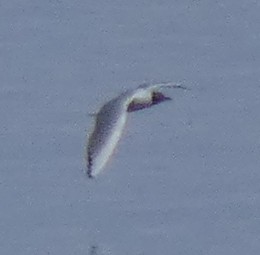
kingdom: Animalia
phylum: Chordata
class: Aves
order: Charadriiformes
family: Laridae
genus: Chroicocephalus
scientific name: Chroicocephalus ridibundus
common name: Black-headed gull
